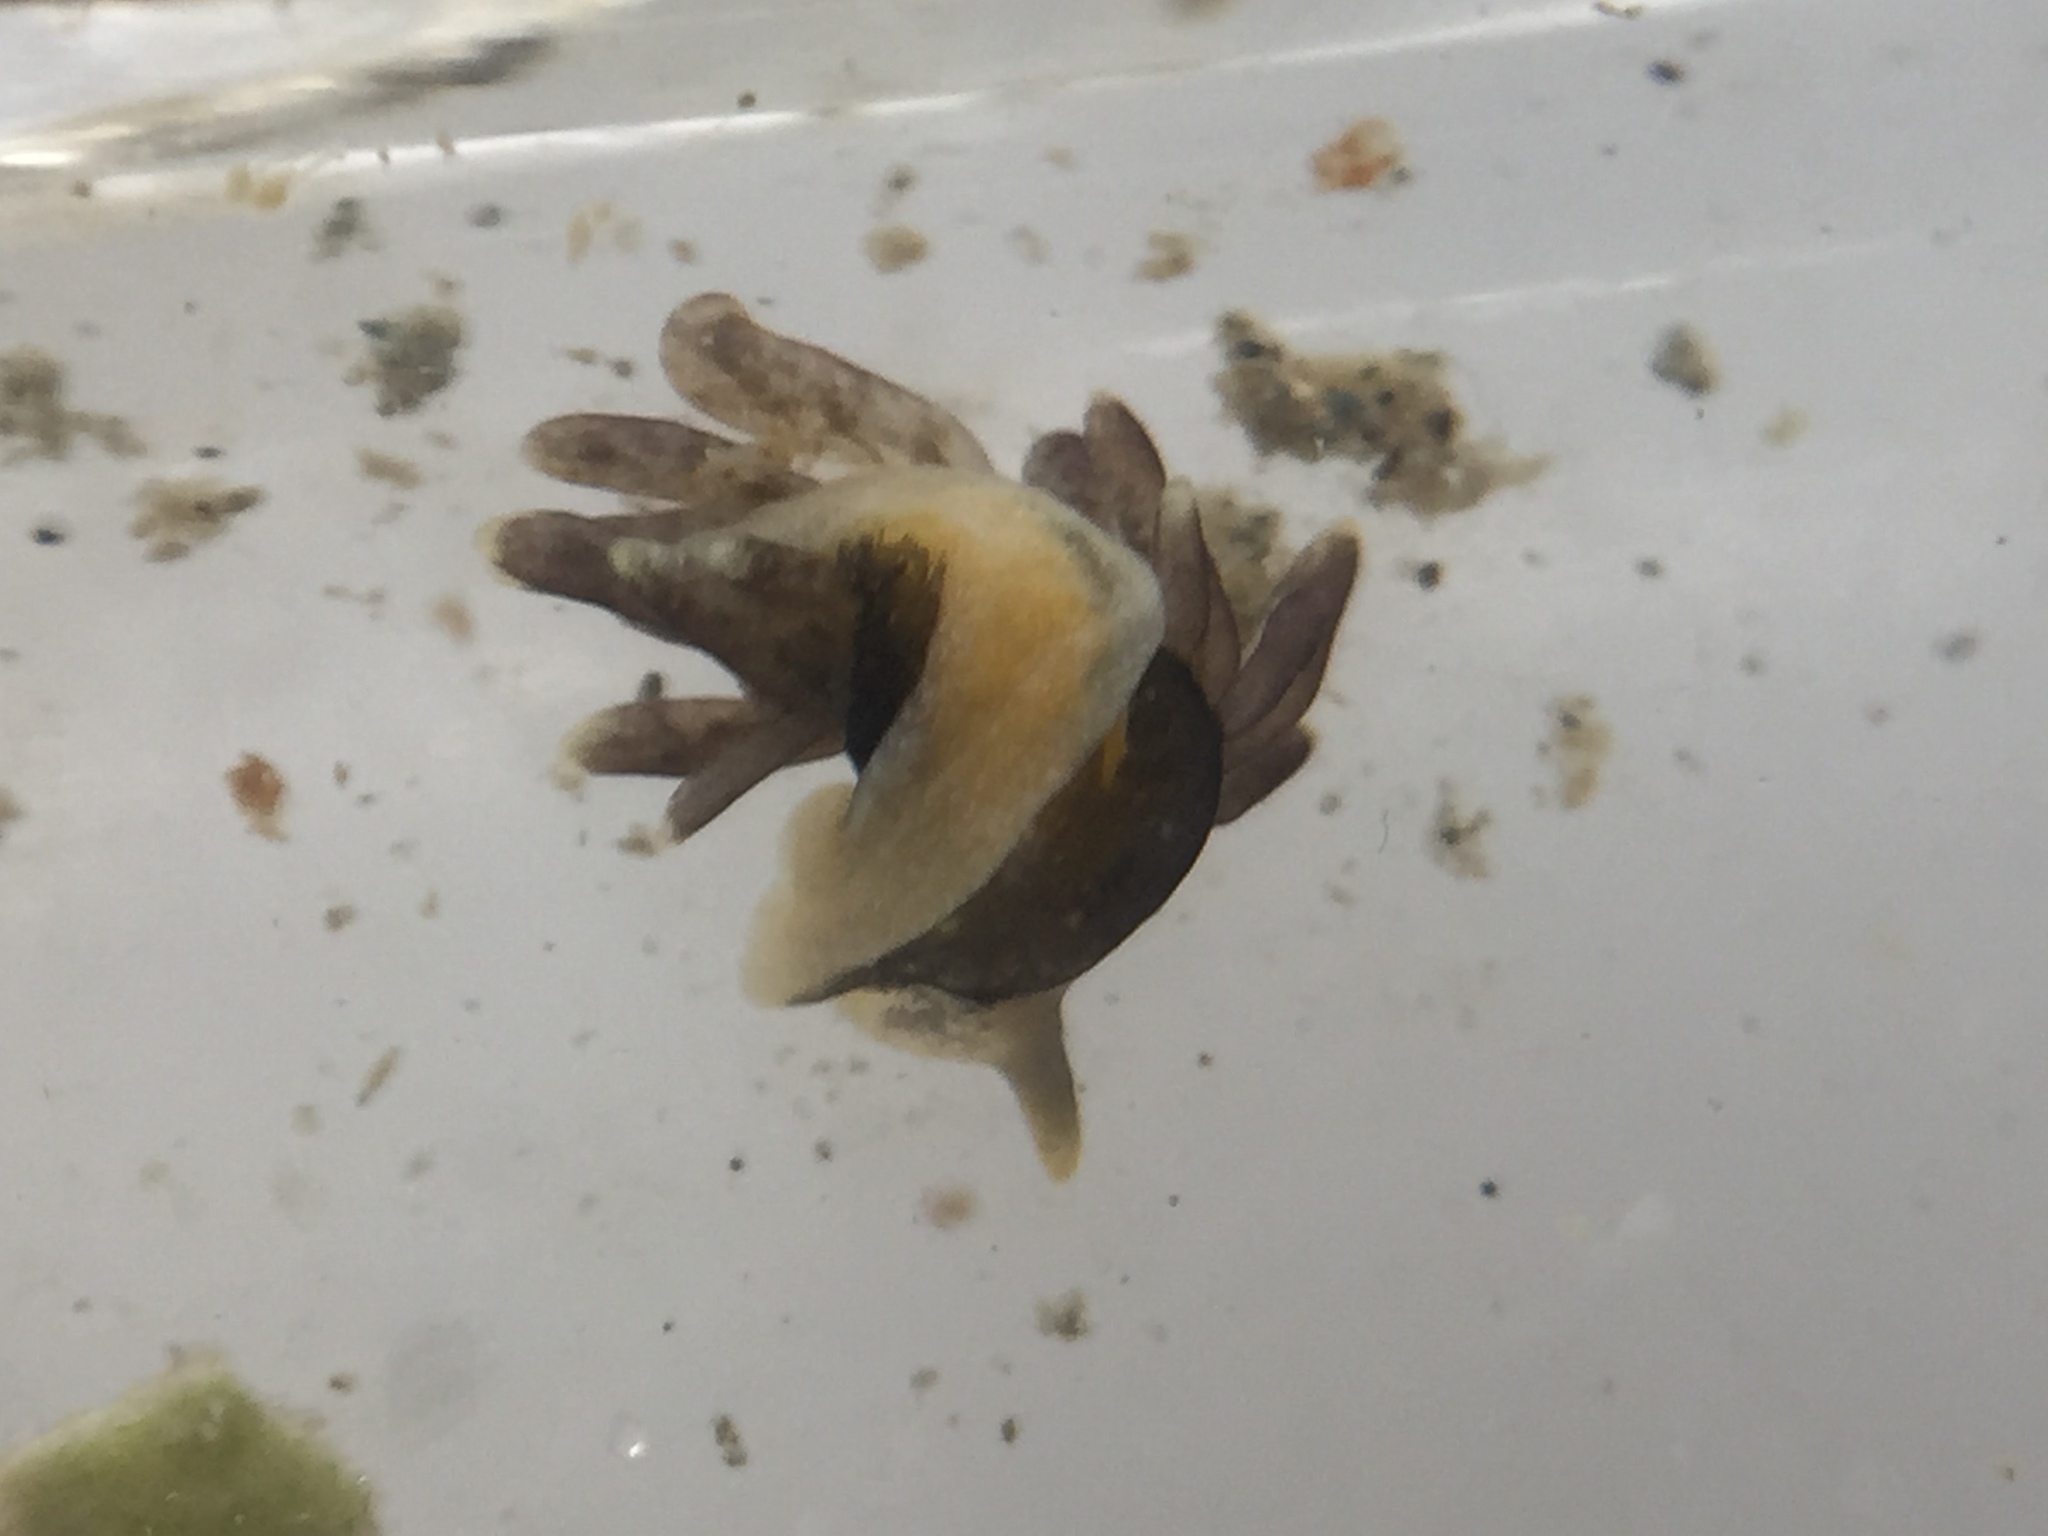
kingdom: Animalia
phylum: Mollusca
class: Gastropoda
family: Limapontiidae
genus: Ercolania
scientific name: Ercolania felina
